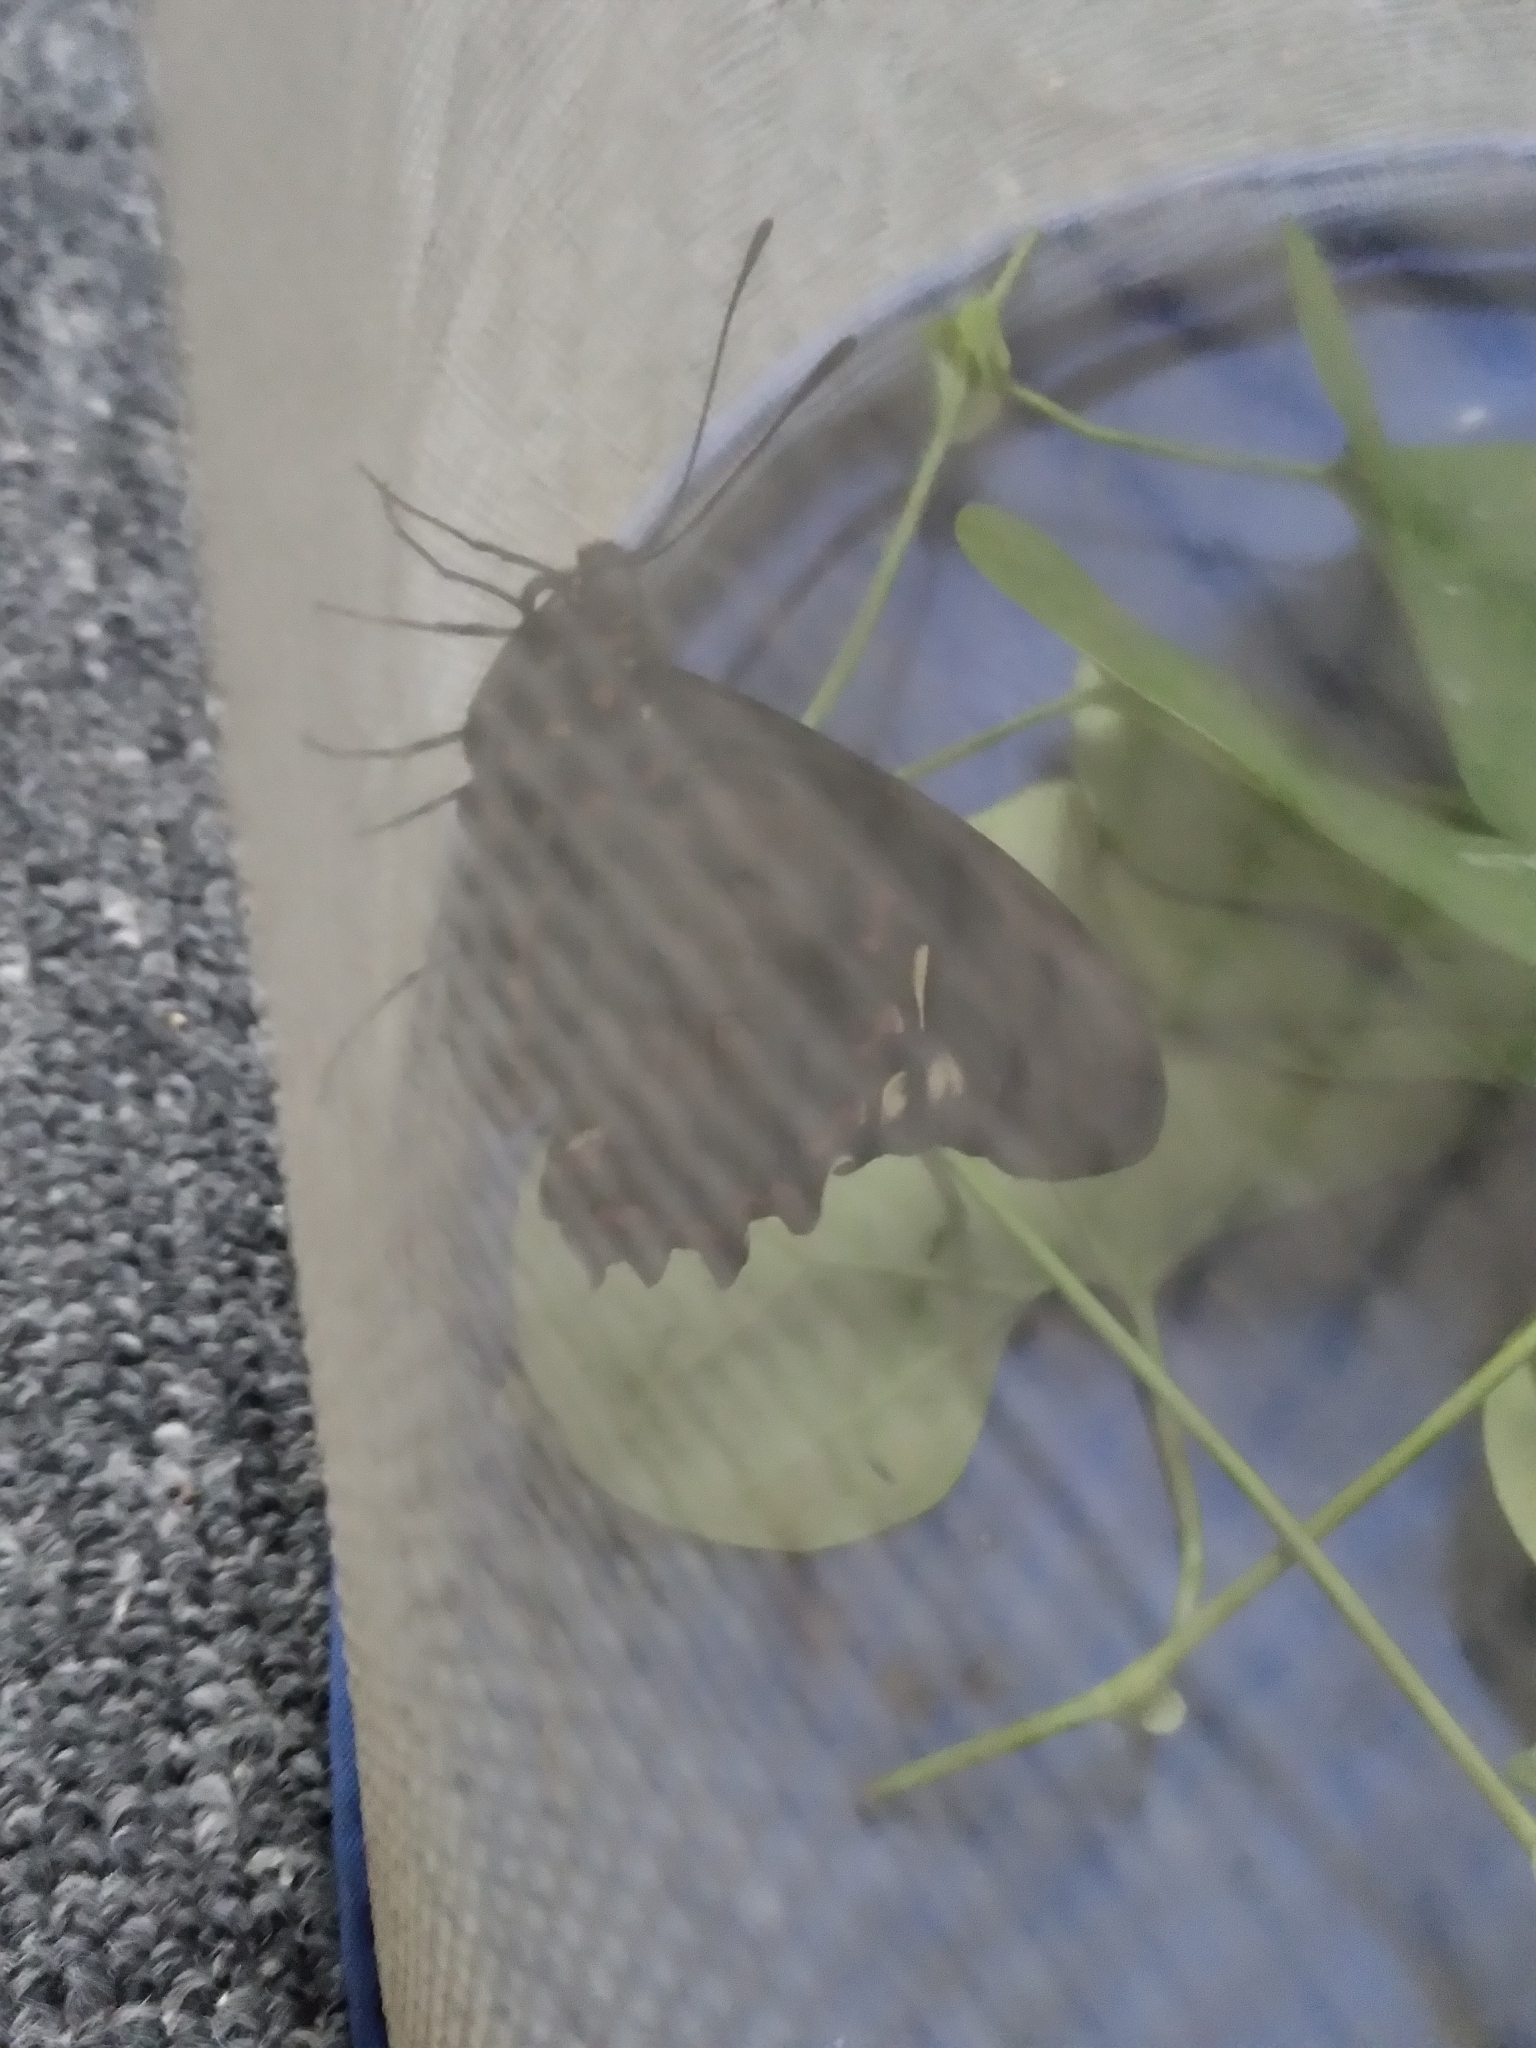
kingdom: Animalia
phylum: Arthropoda
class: Insecta
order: Lepidoptera
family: Papilionidae
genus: Battus
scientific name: Battus polydamas
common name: Polydamas swallowtail
